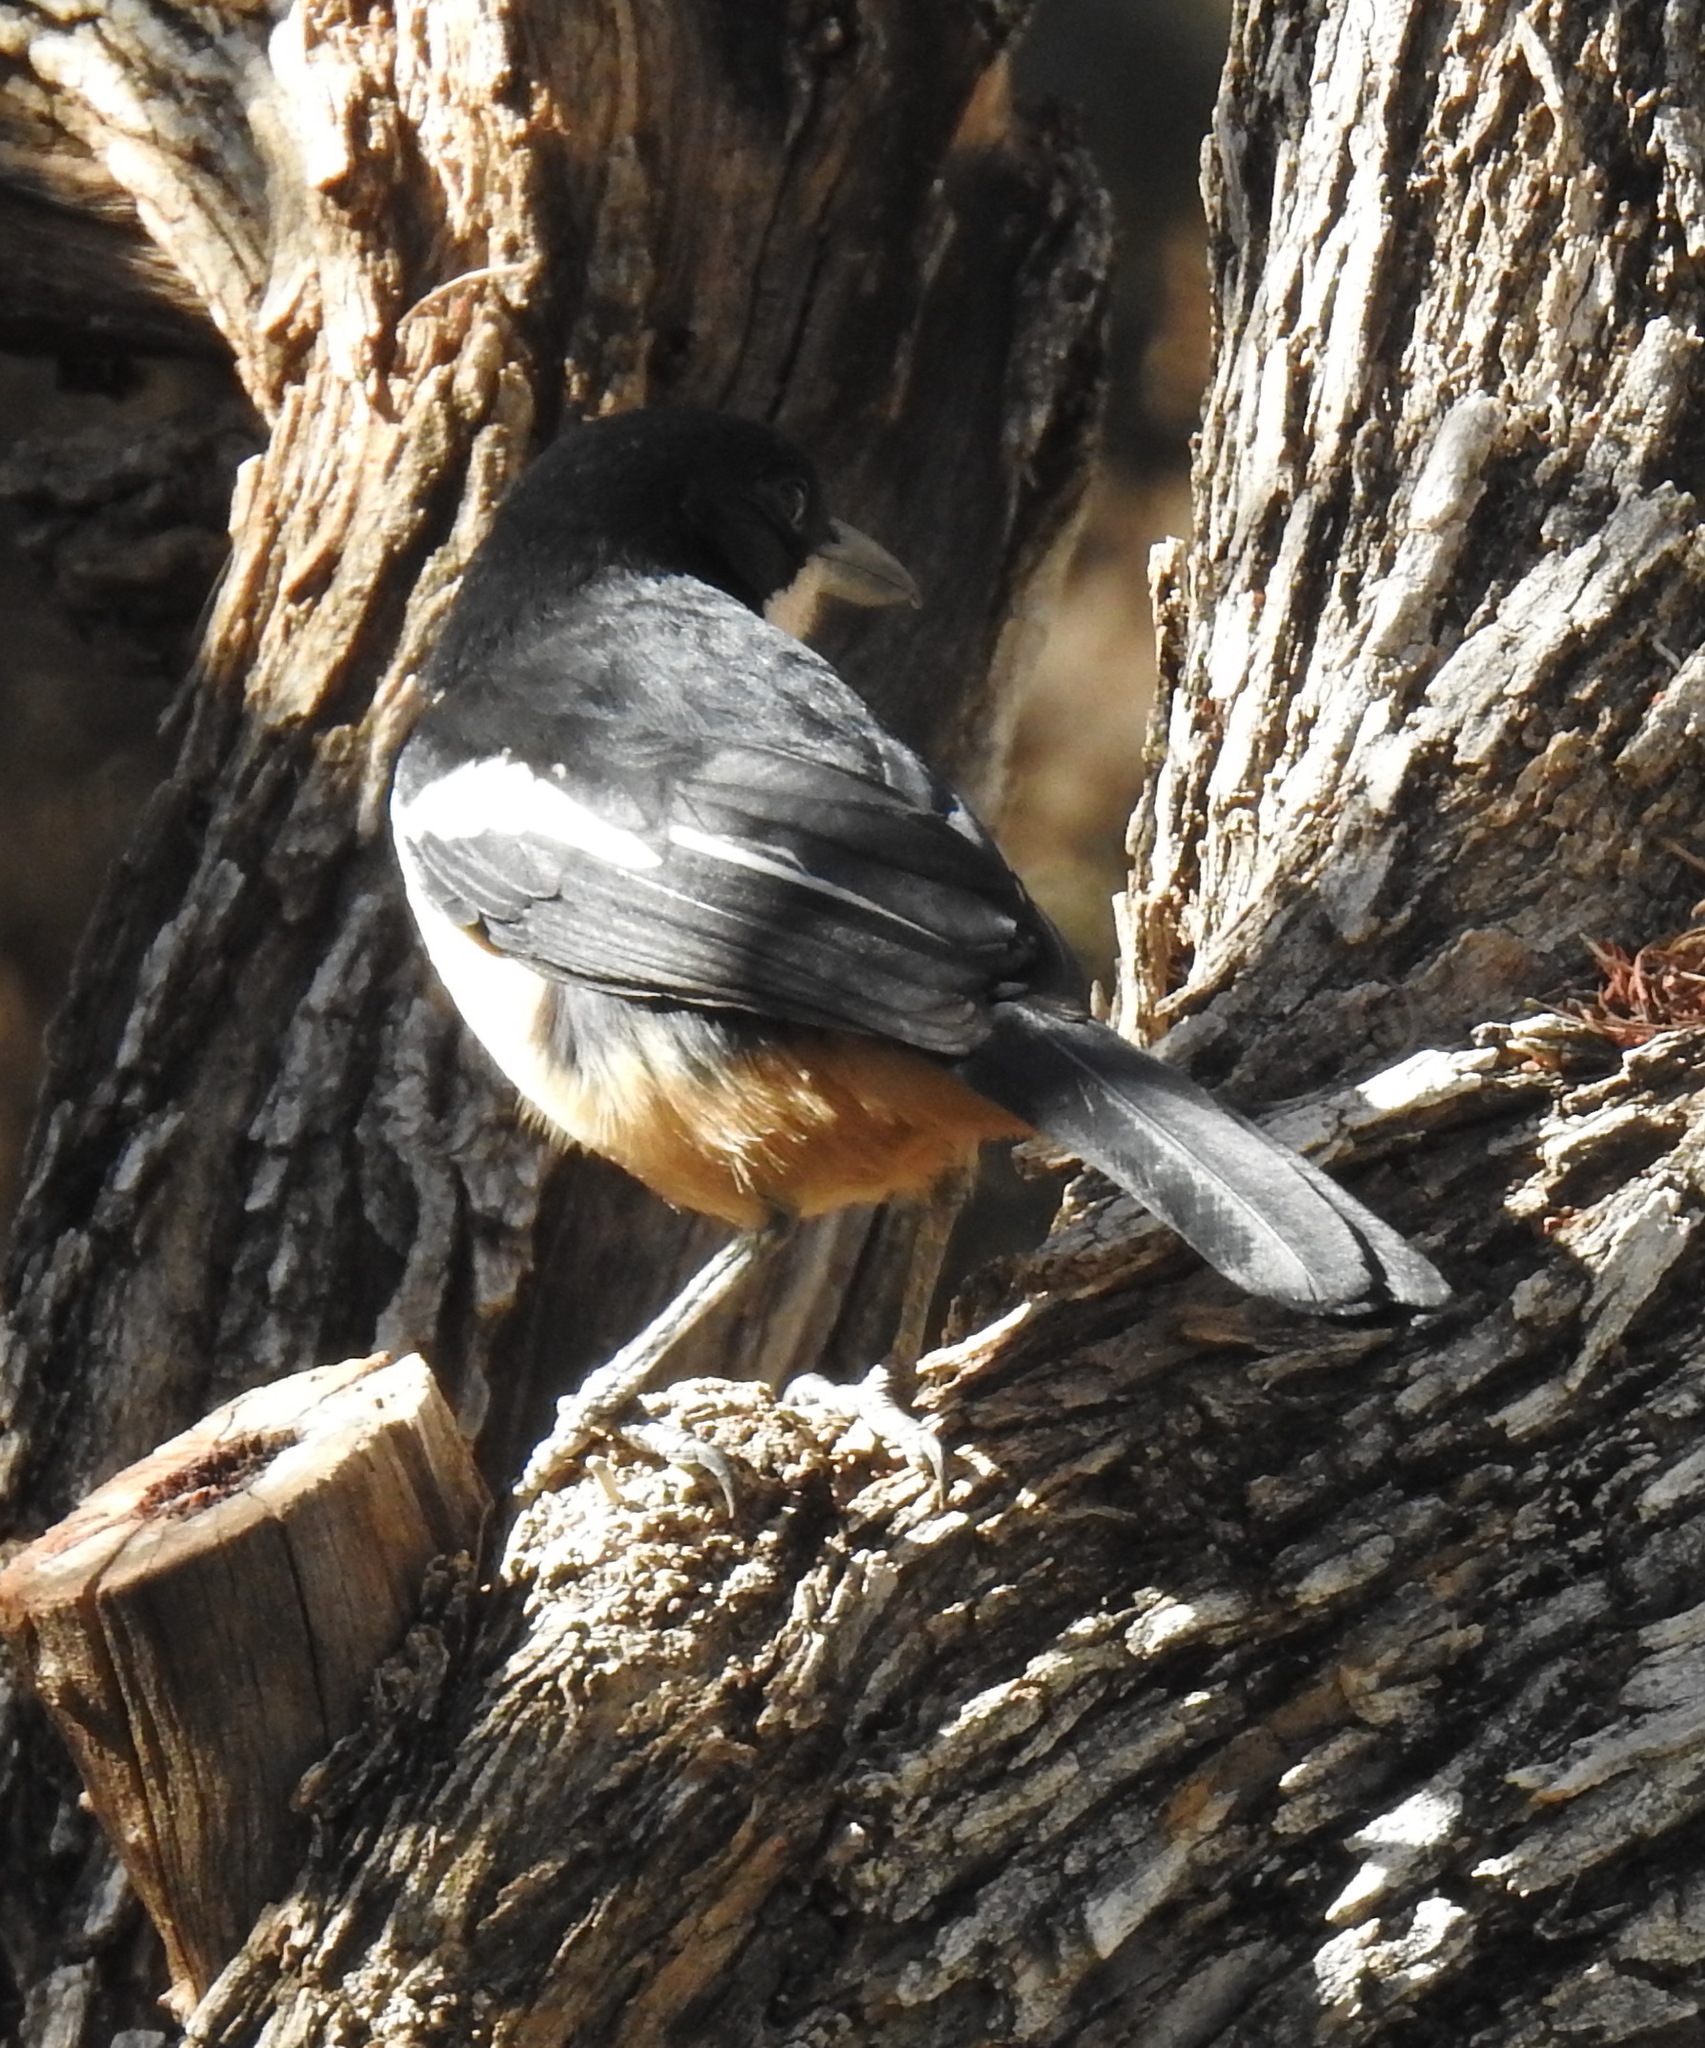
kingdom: Animalia
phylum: Chordata
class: Aves
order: Passeriformes
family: Malaconotidae
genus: Laniarius
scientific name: Laniarius ferrugineus
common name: Southern boubou
